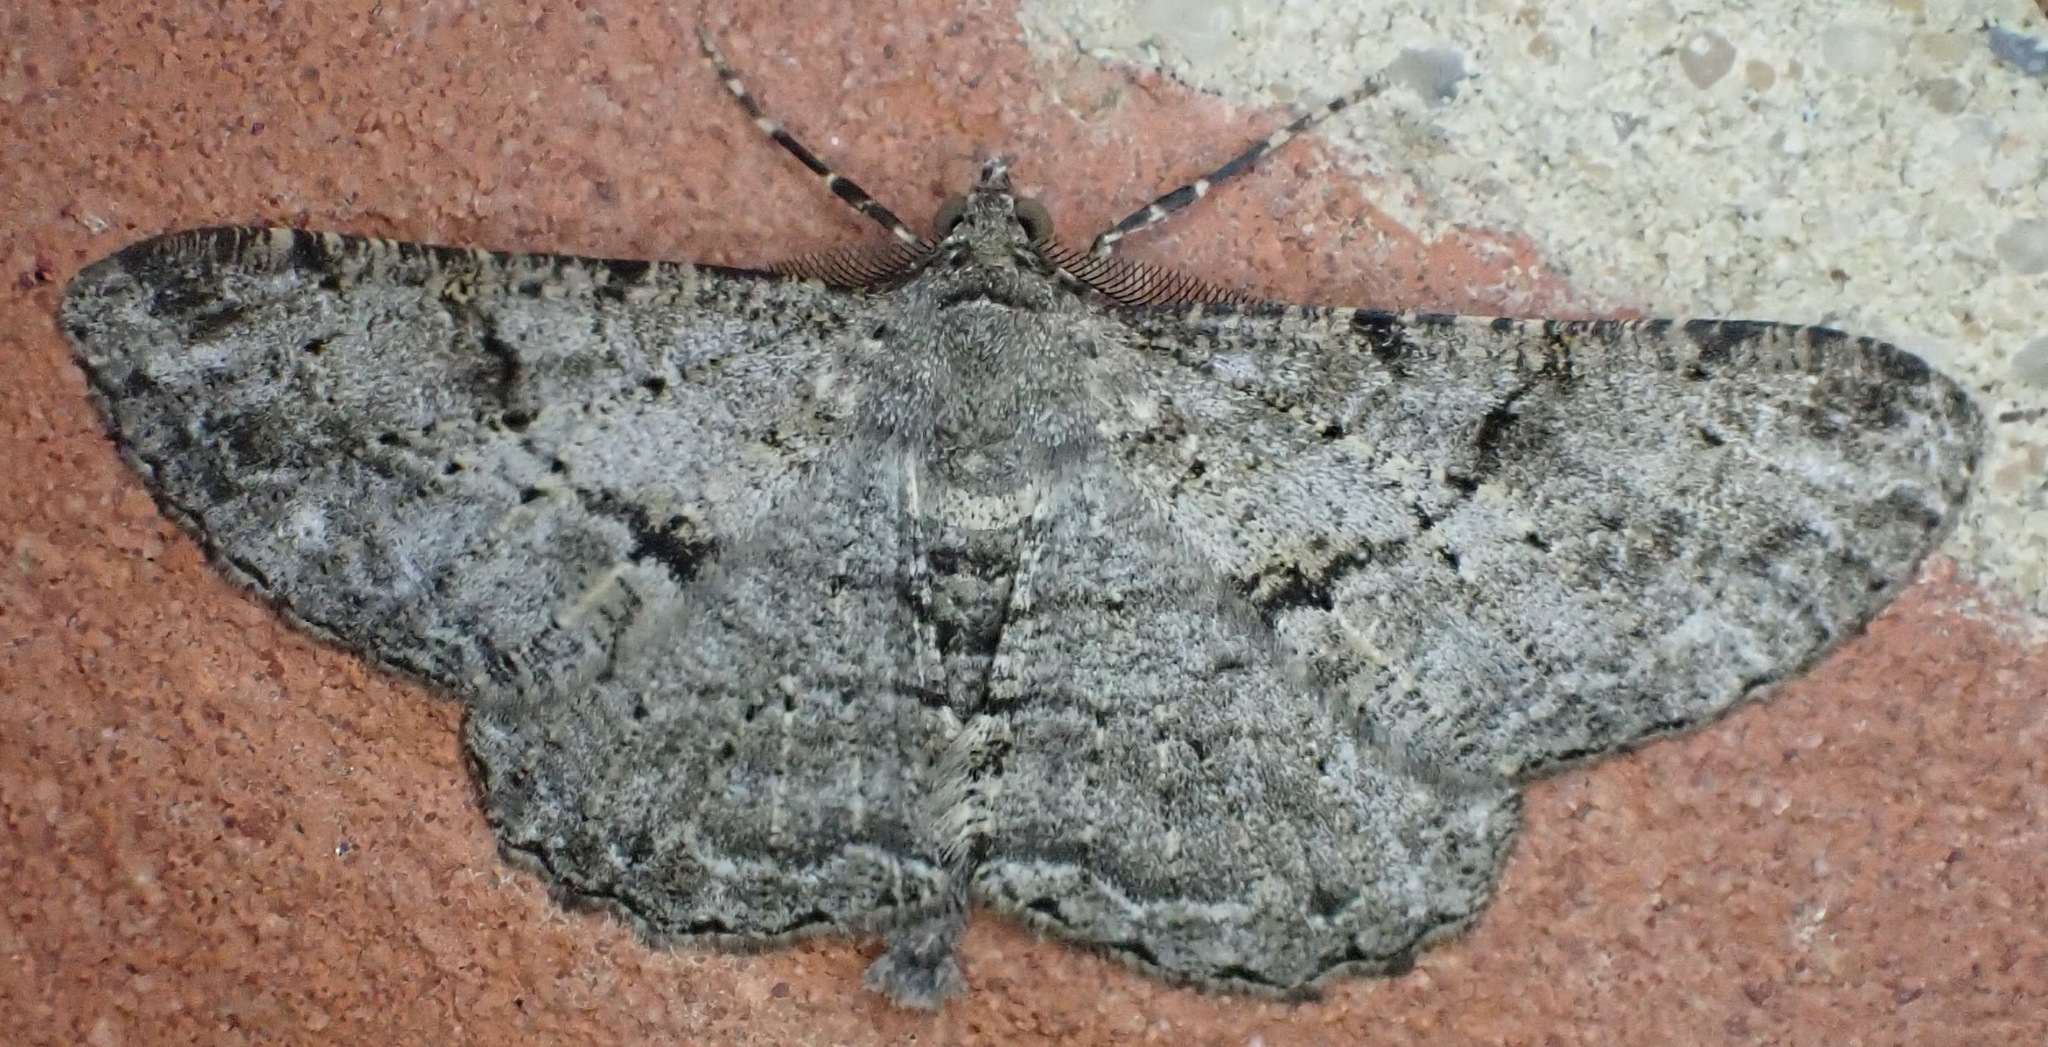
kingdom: Animalia
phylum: Arthropoda
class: Insecta
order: Lepidoptera
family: Geometridae
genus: Peribatodes
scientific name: Peribatodes rhomboidaria
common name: Willow beauty
